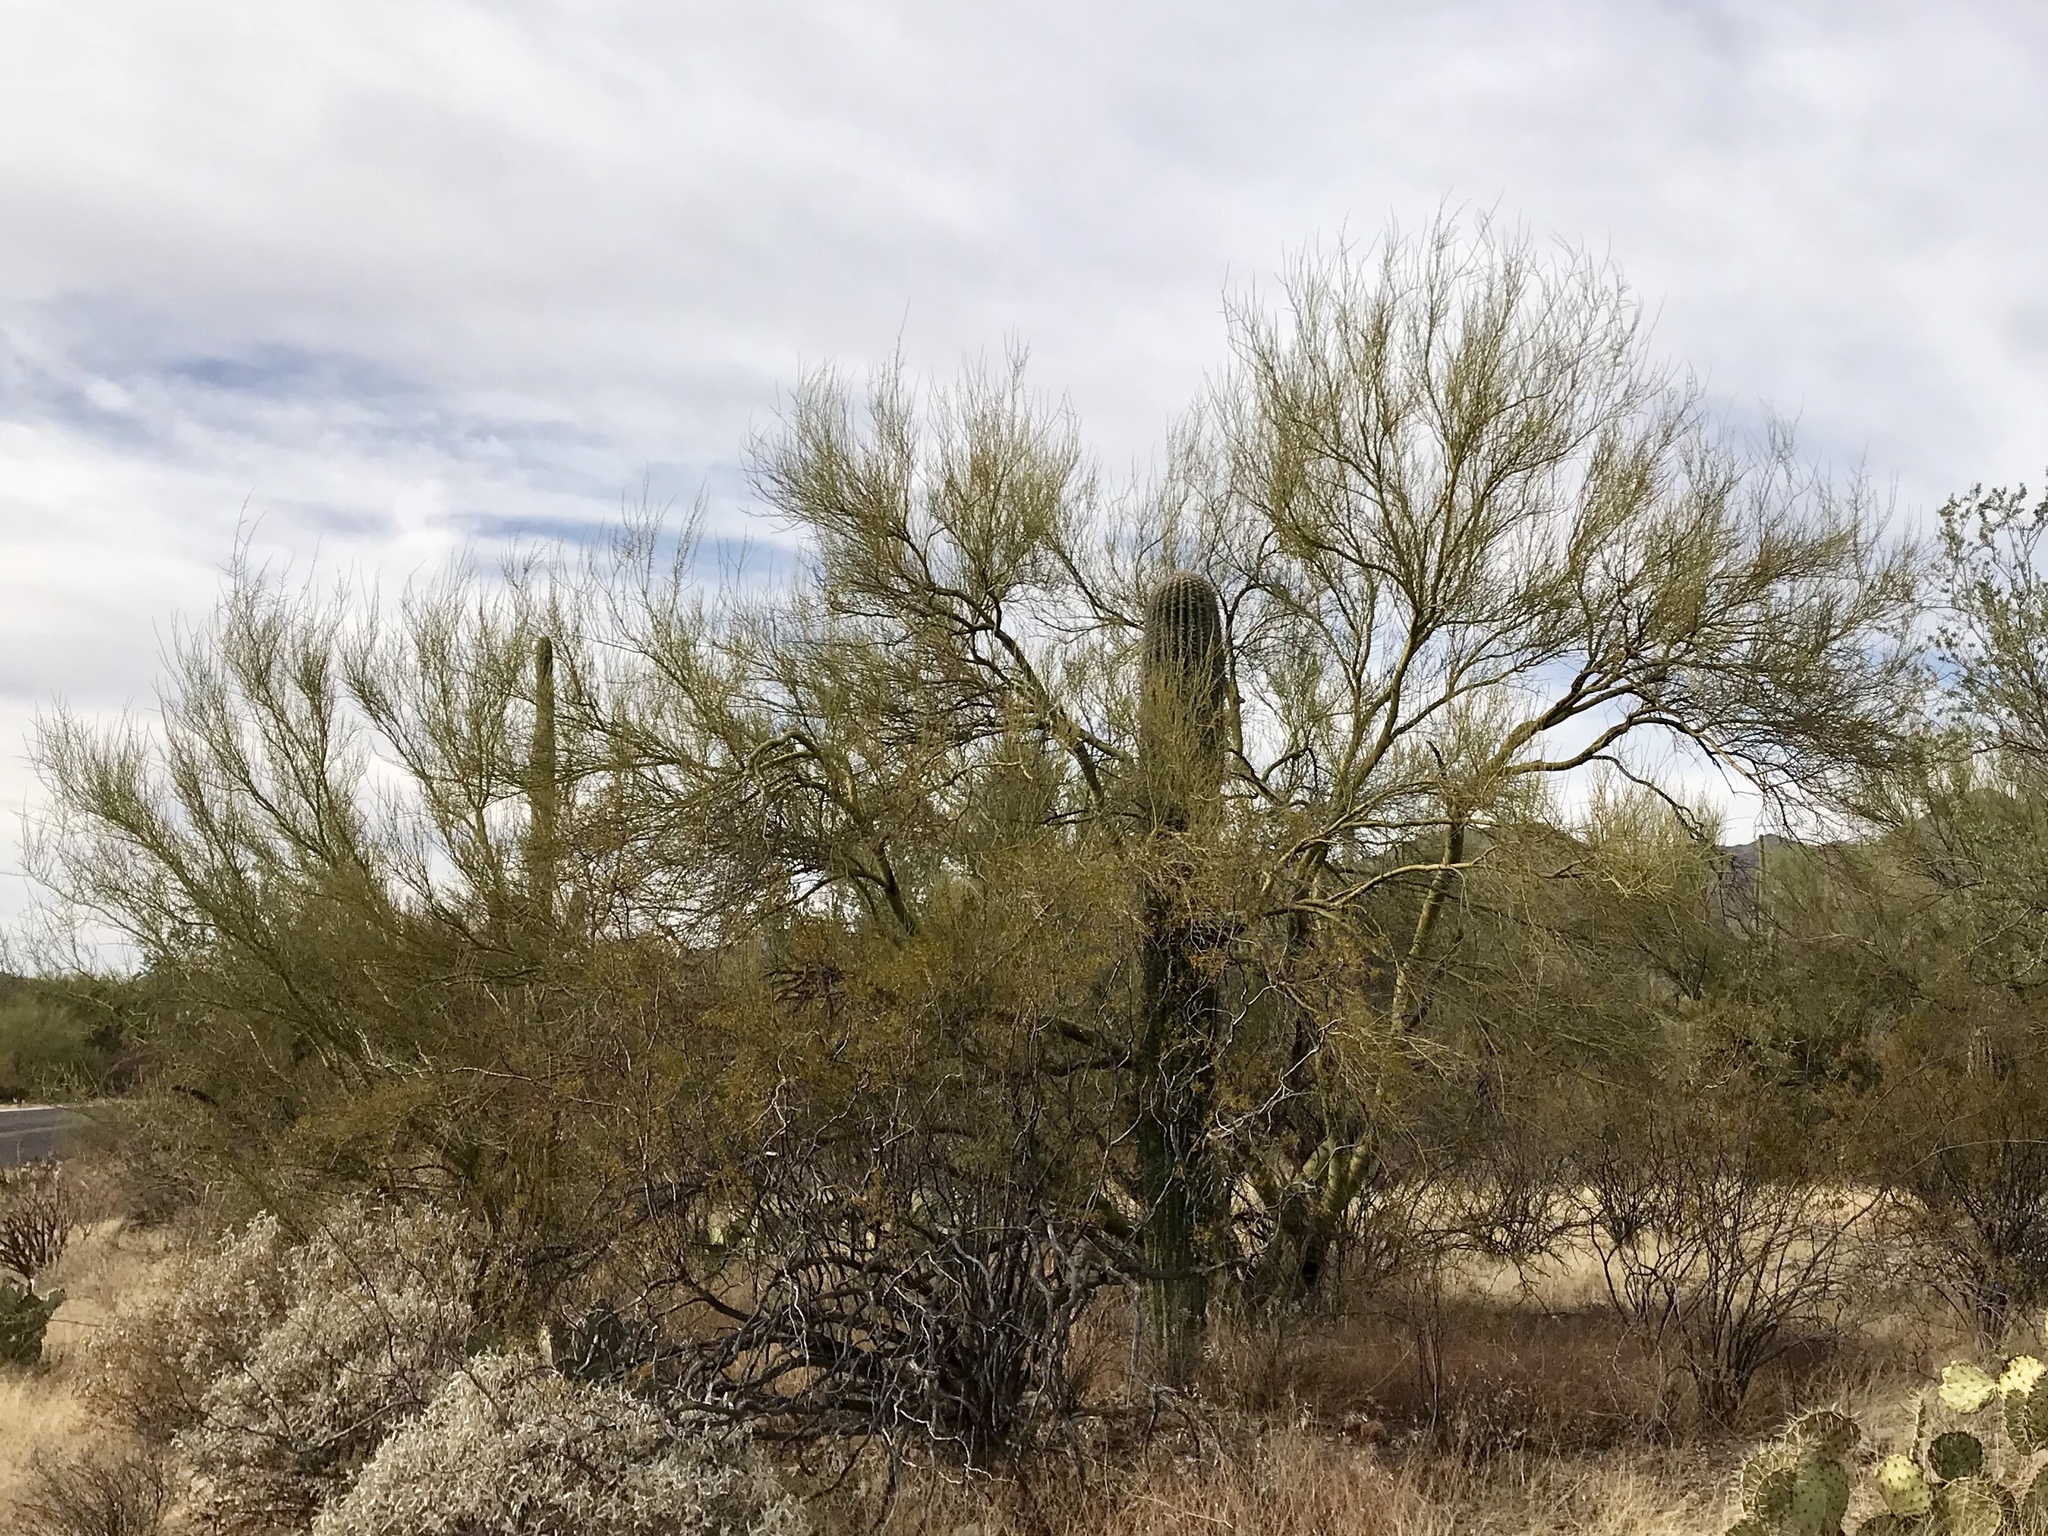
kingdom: Plantae
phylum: Tracheophyta
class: Magnoliopsida
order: Fabales
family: Fabaceae
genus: Parkinsonia
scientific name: Parkinsonia microphylla
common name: Yellow paloverde
